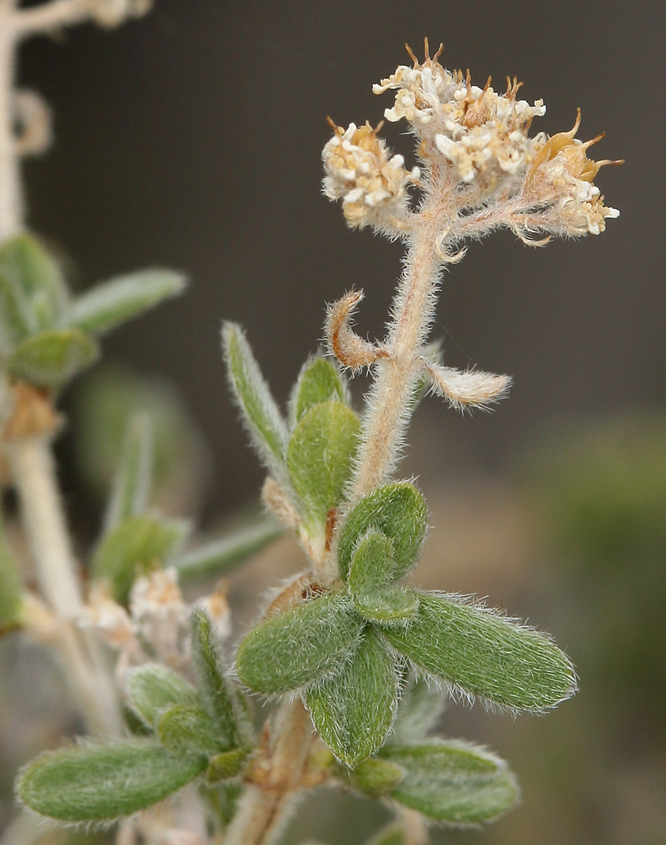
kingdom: Plantae
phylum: Tracheophyta
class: Magnoliopsida
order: Cornales
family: Hydrangeaceae
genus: Fendlerella
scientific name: Fendlerella utahensis
